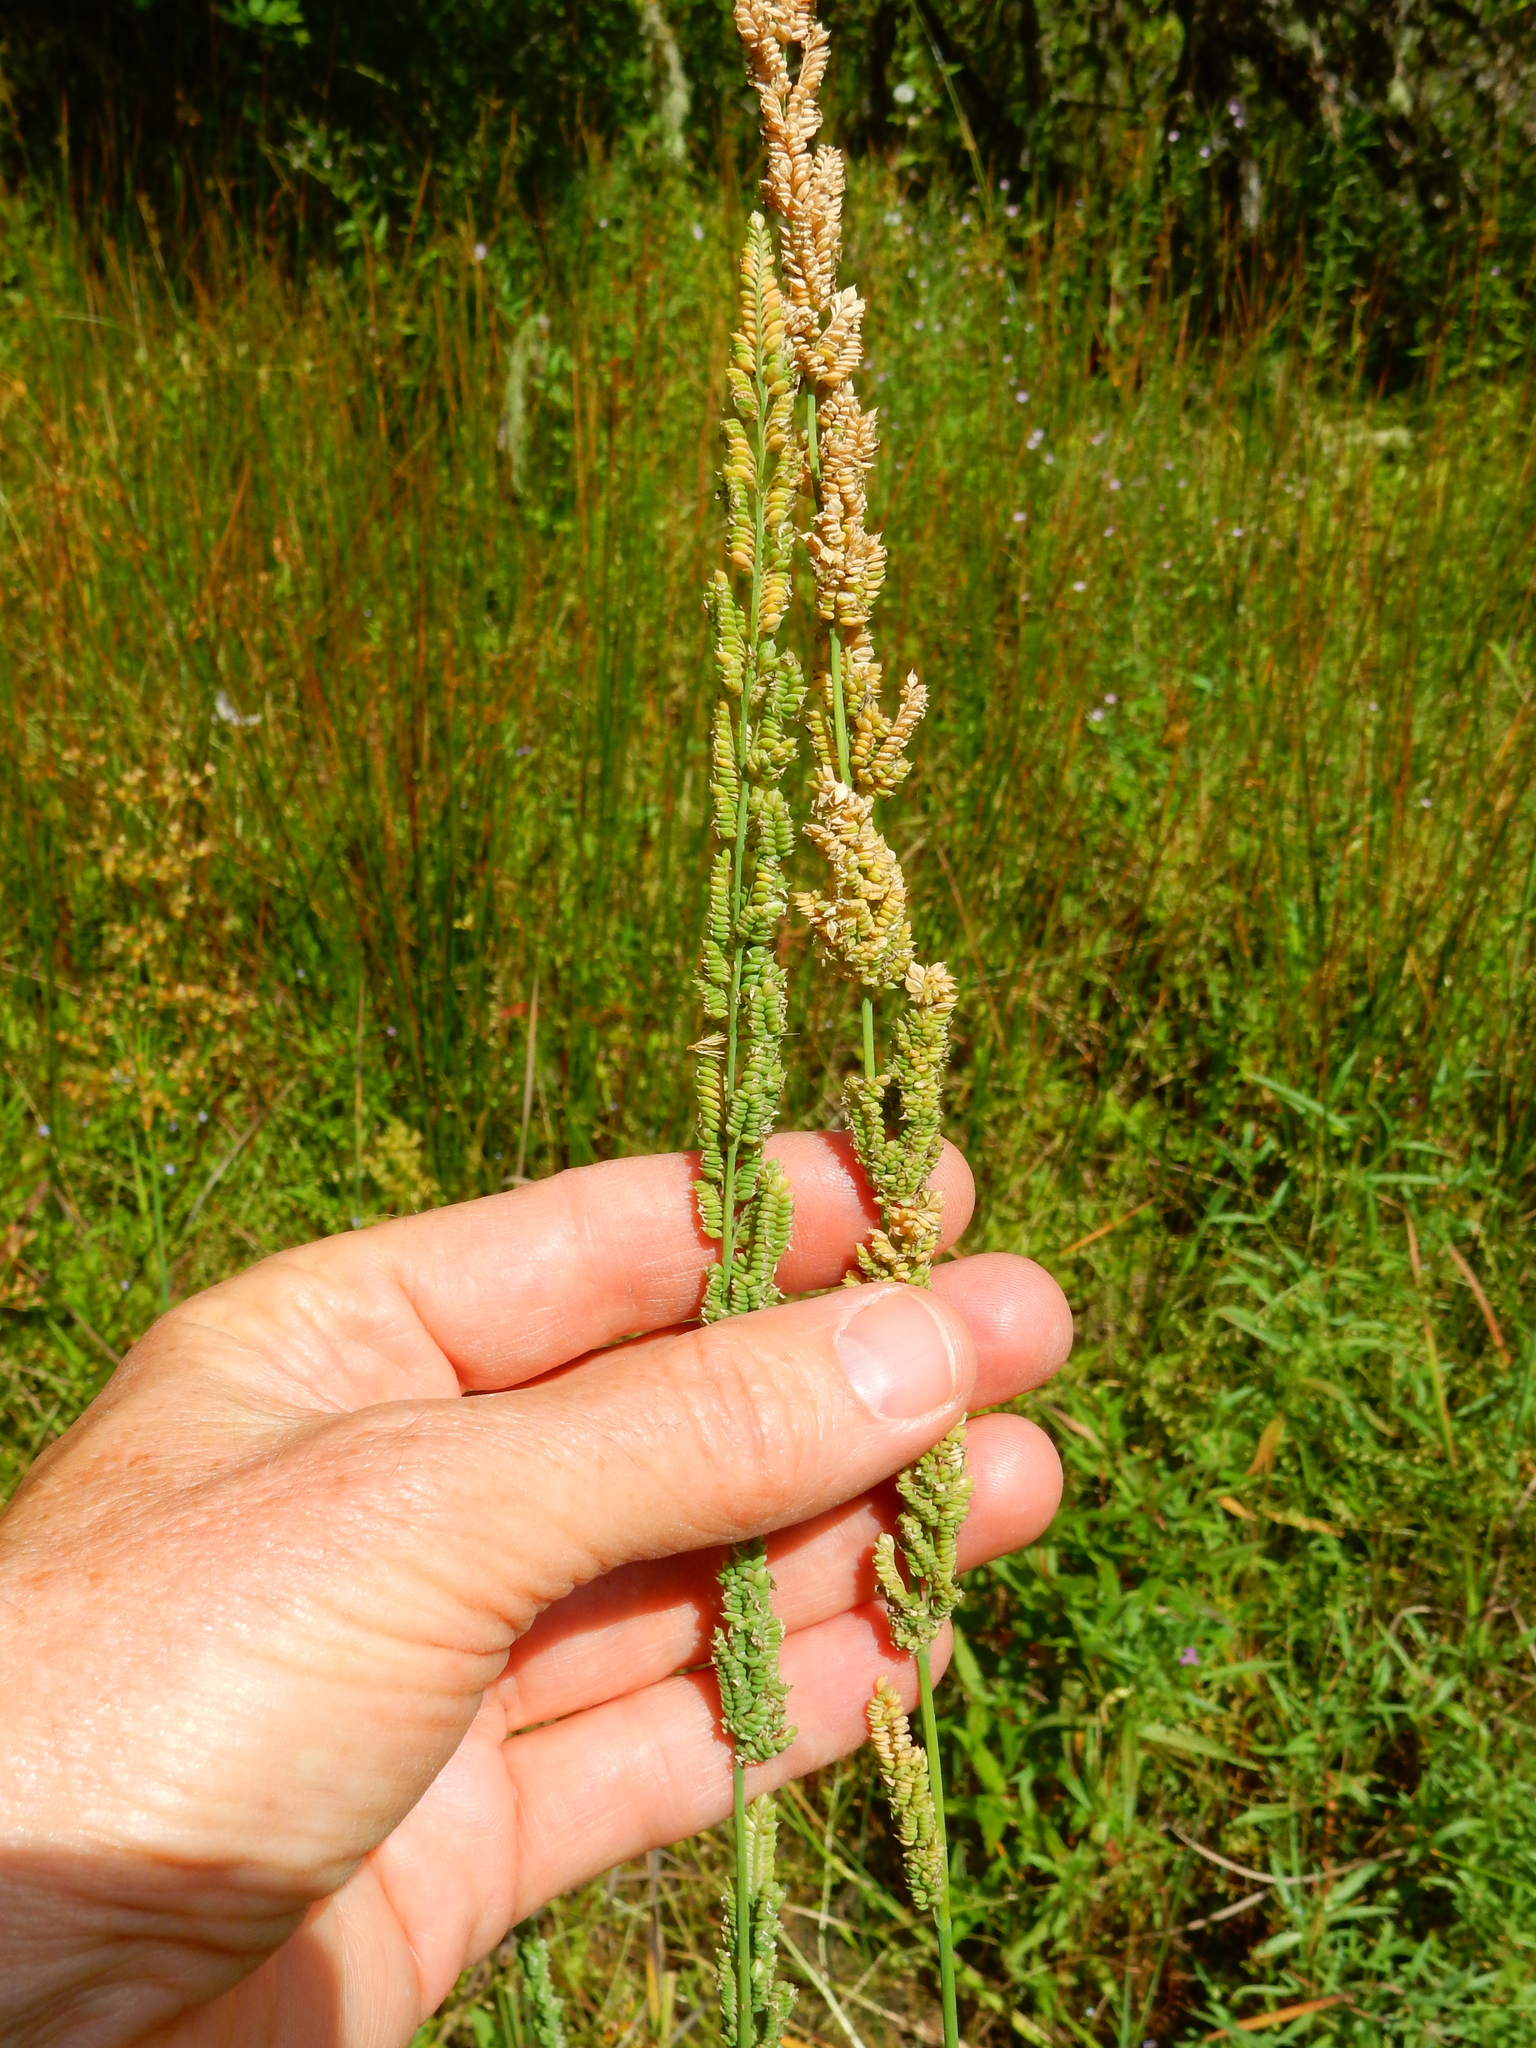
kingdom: Plantae
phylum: Tracheophyta
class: Liliopsida
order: Poales
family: Poaceae
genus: Beckmannia
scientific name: Beckmannia syzigachne
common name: American slough-grass
